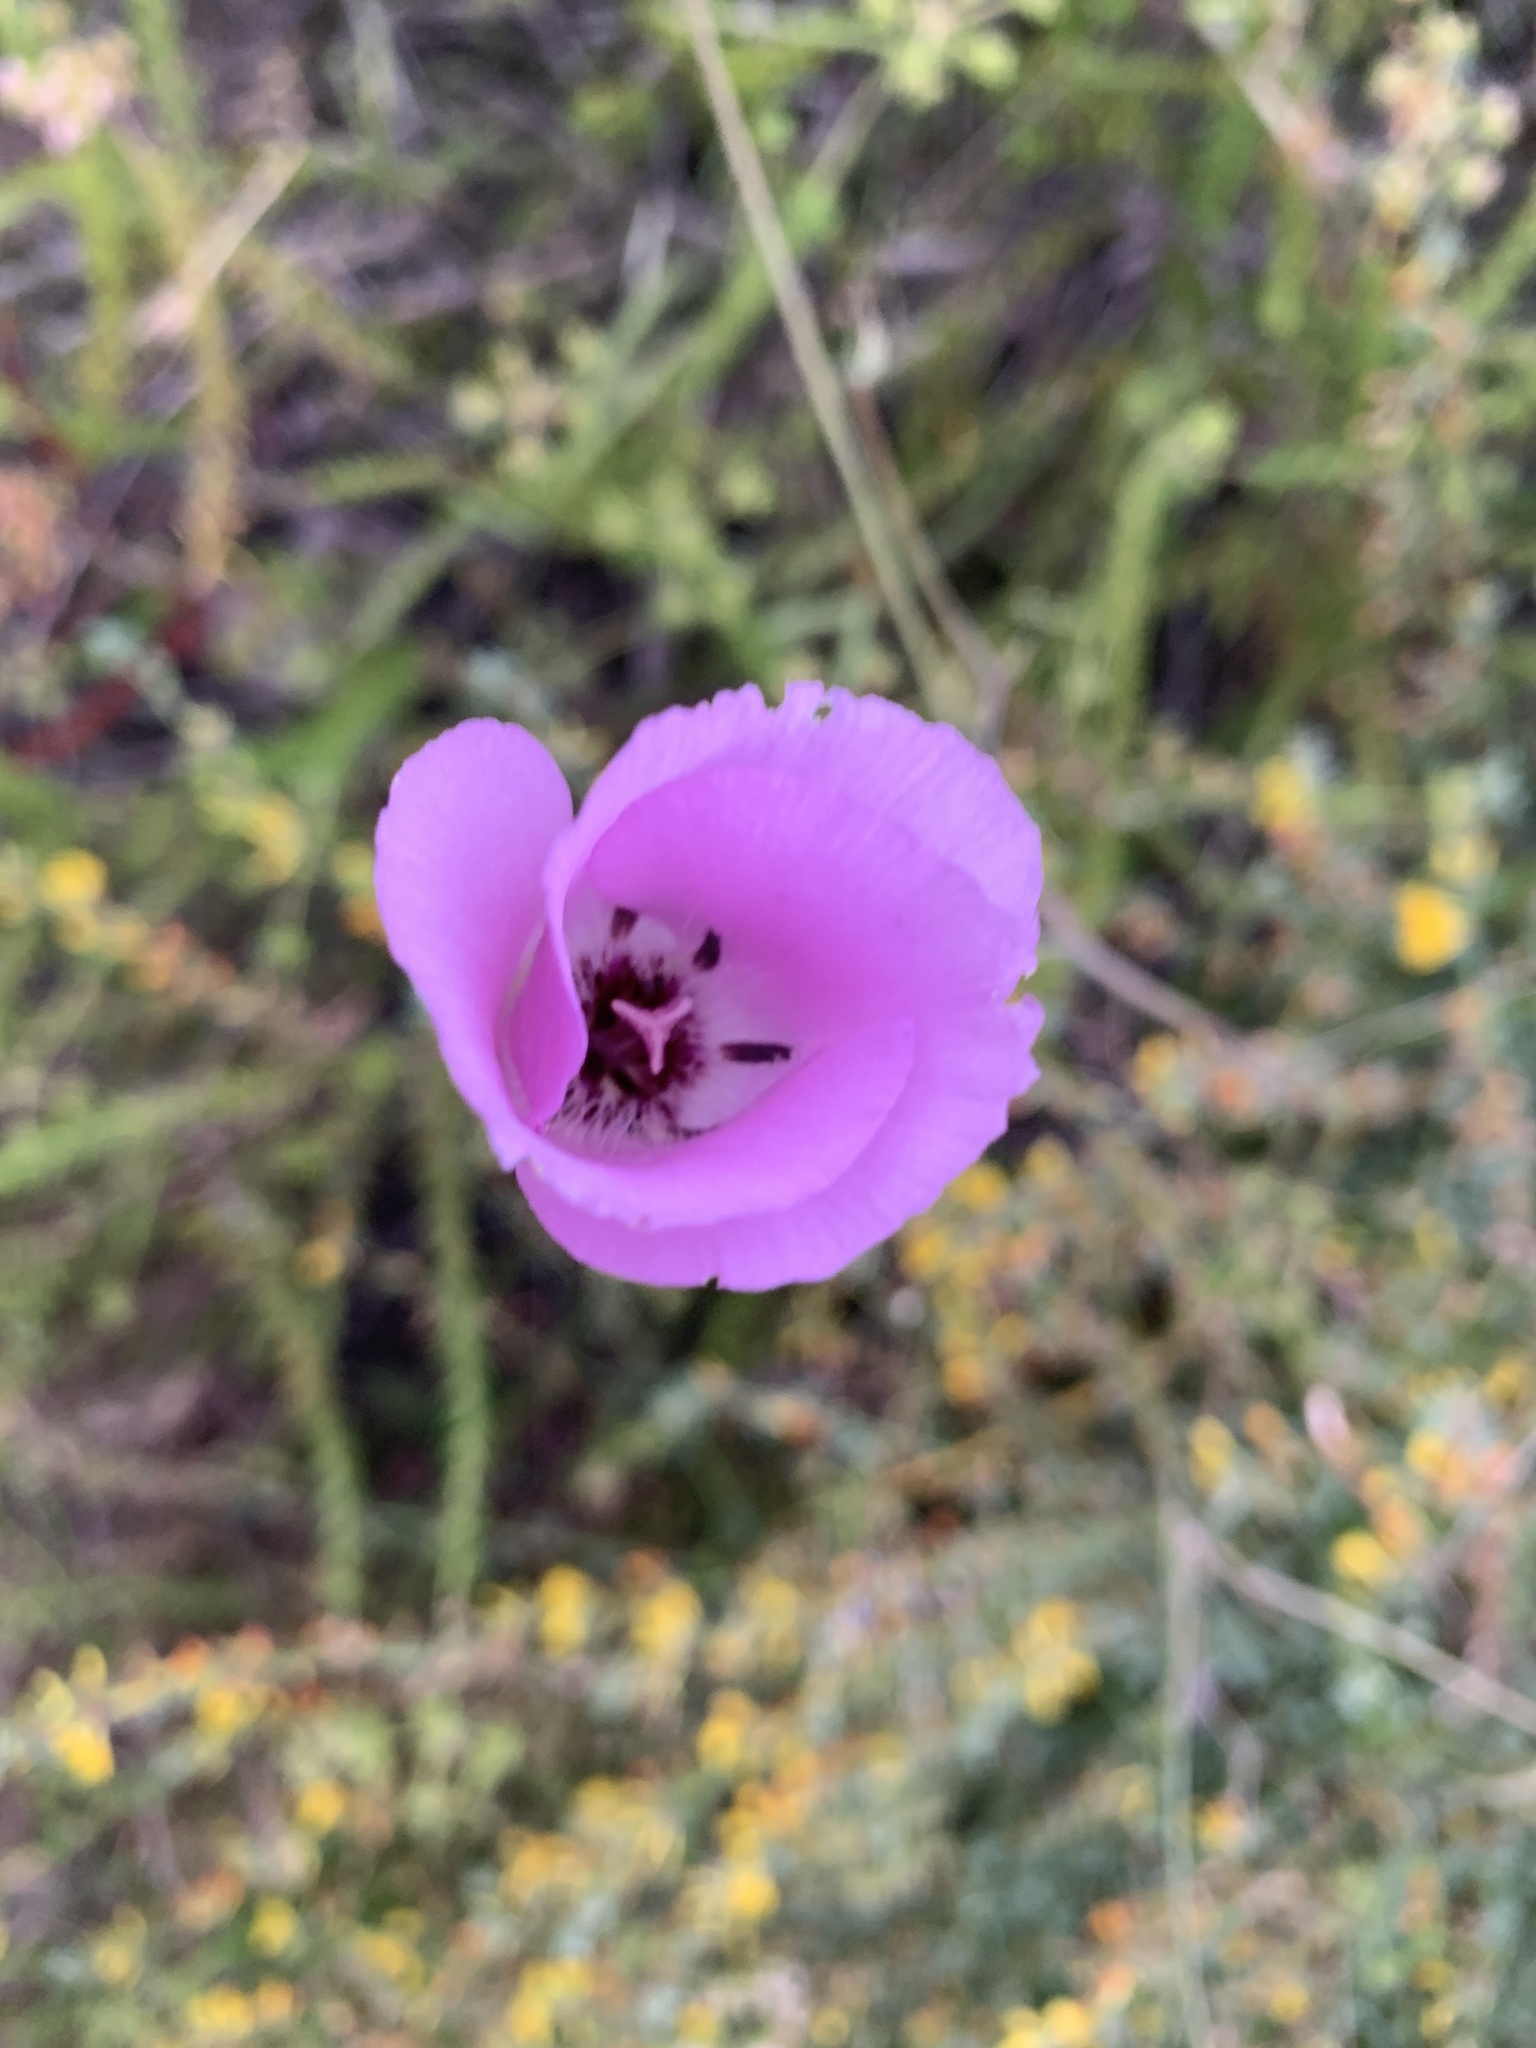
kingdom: Plantae
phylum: Tracheophyta
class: Liliopsida
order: Liliales
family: Liliaceae
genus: Calochortus
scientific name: Calochortus splendens
